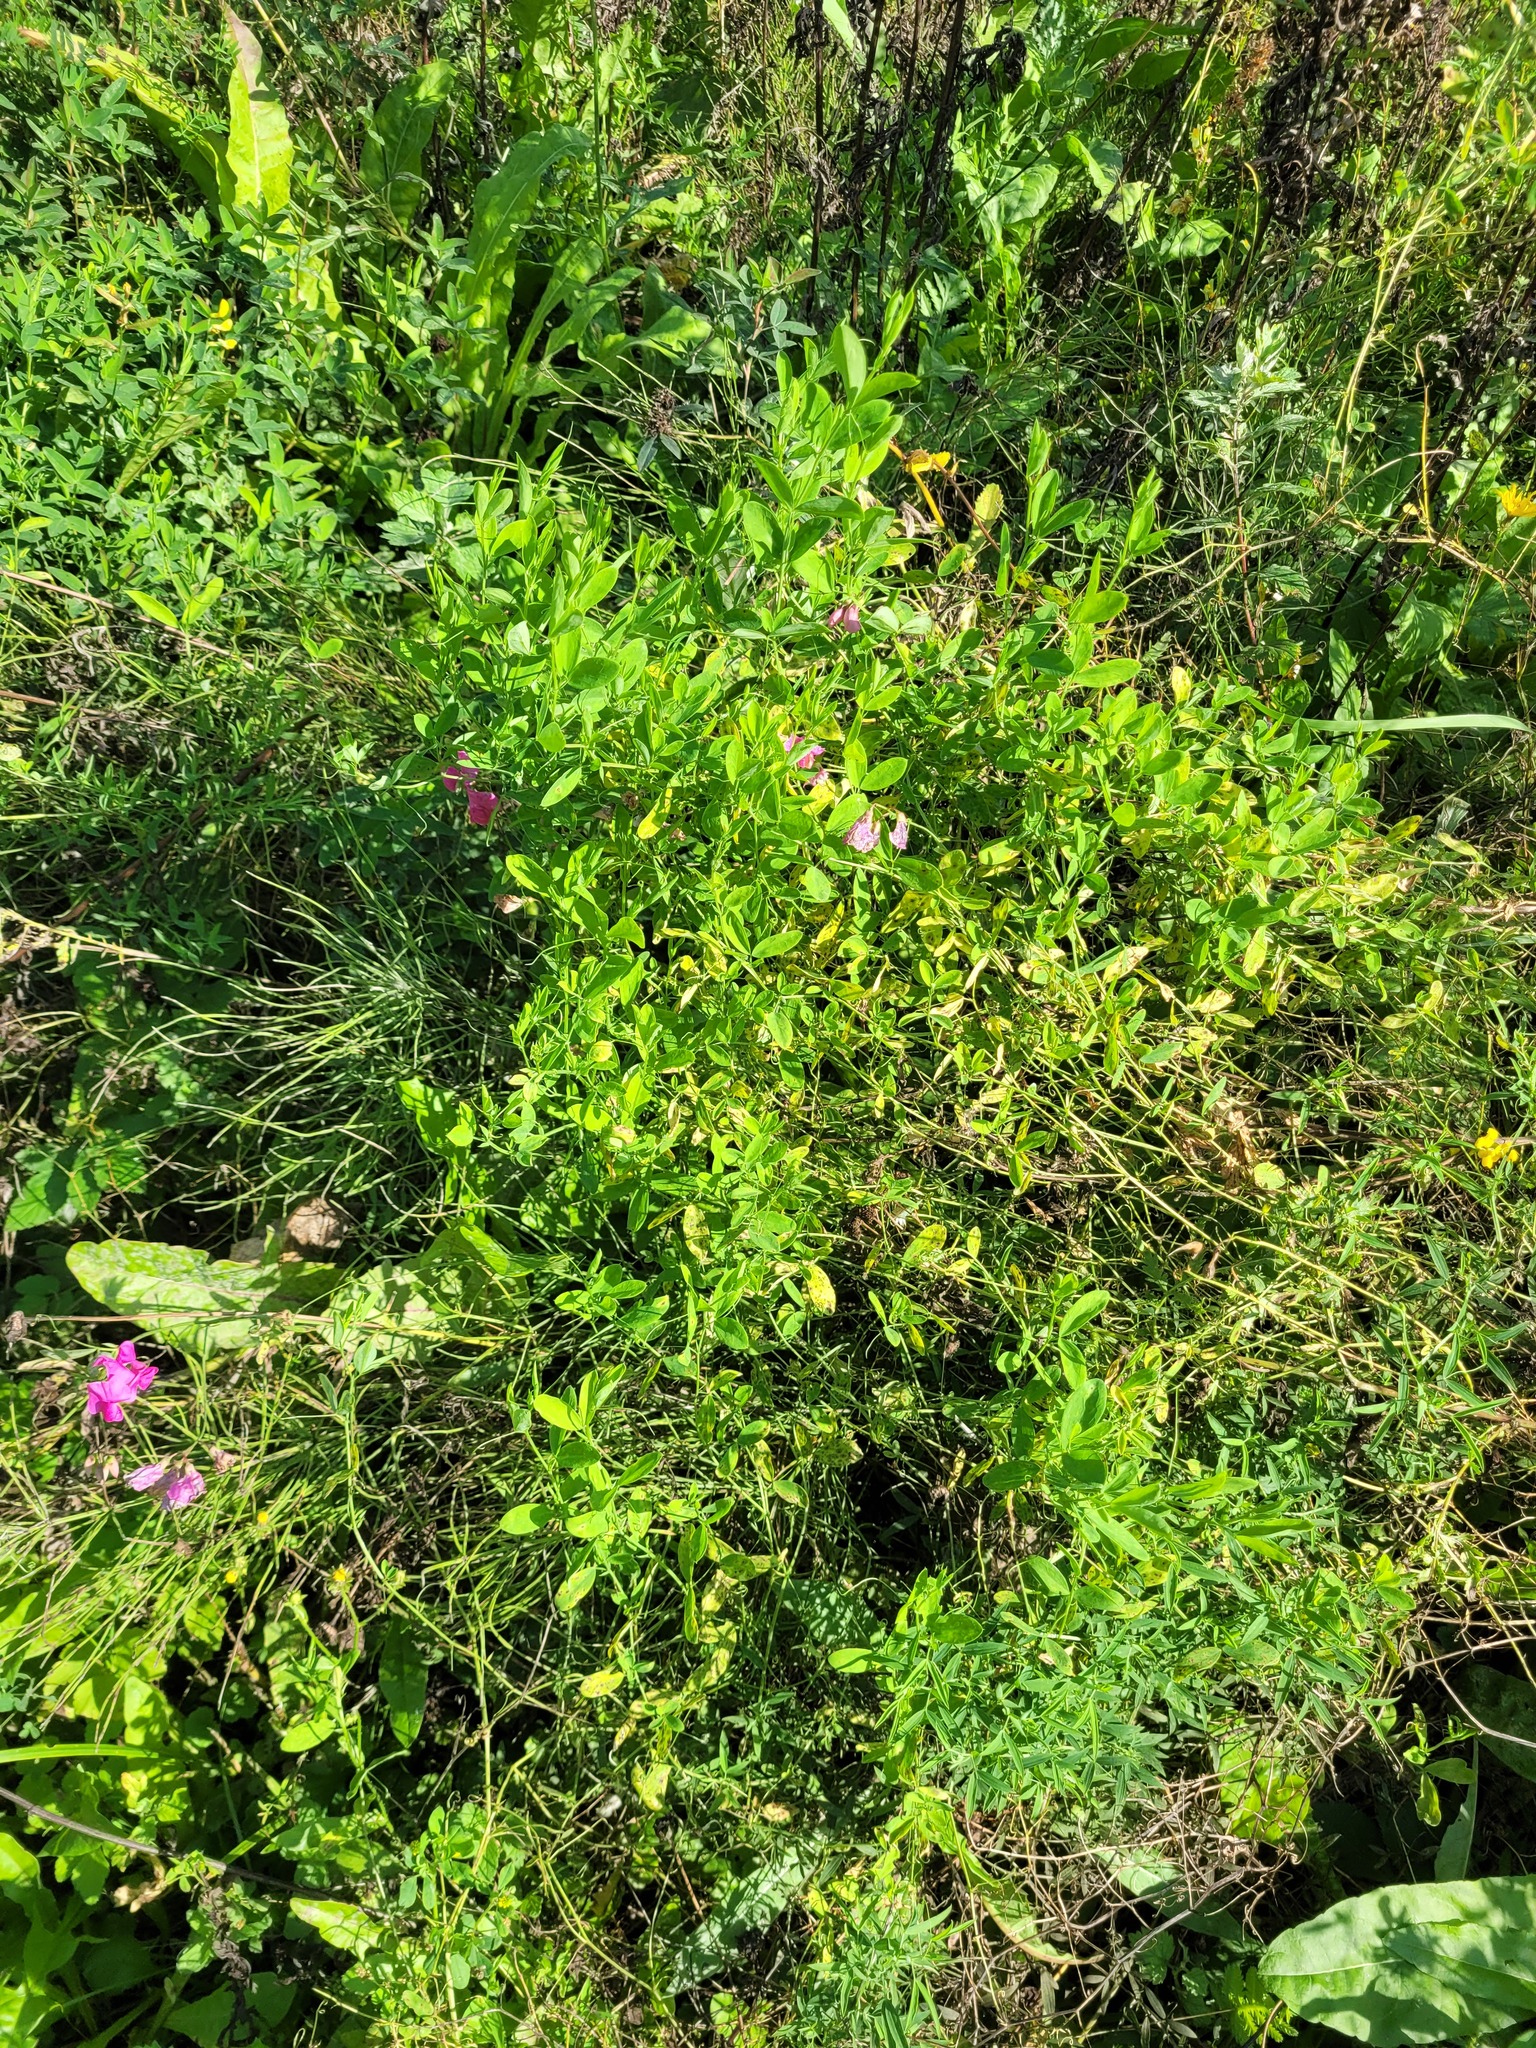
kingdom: Plantae
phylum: Tracheophyta
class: Magnoliopsida
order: Fabales
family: Fabaceae
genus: Lathyrus
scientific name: Lathyrus tuberosus
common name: Tuberous pea
